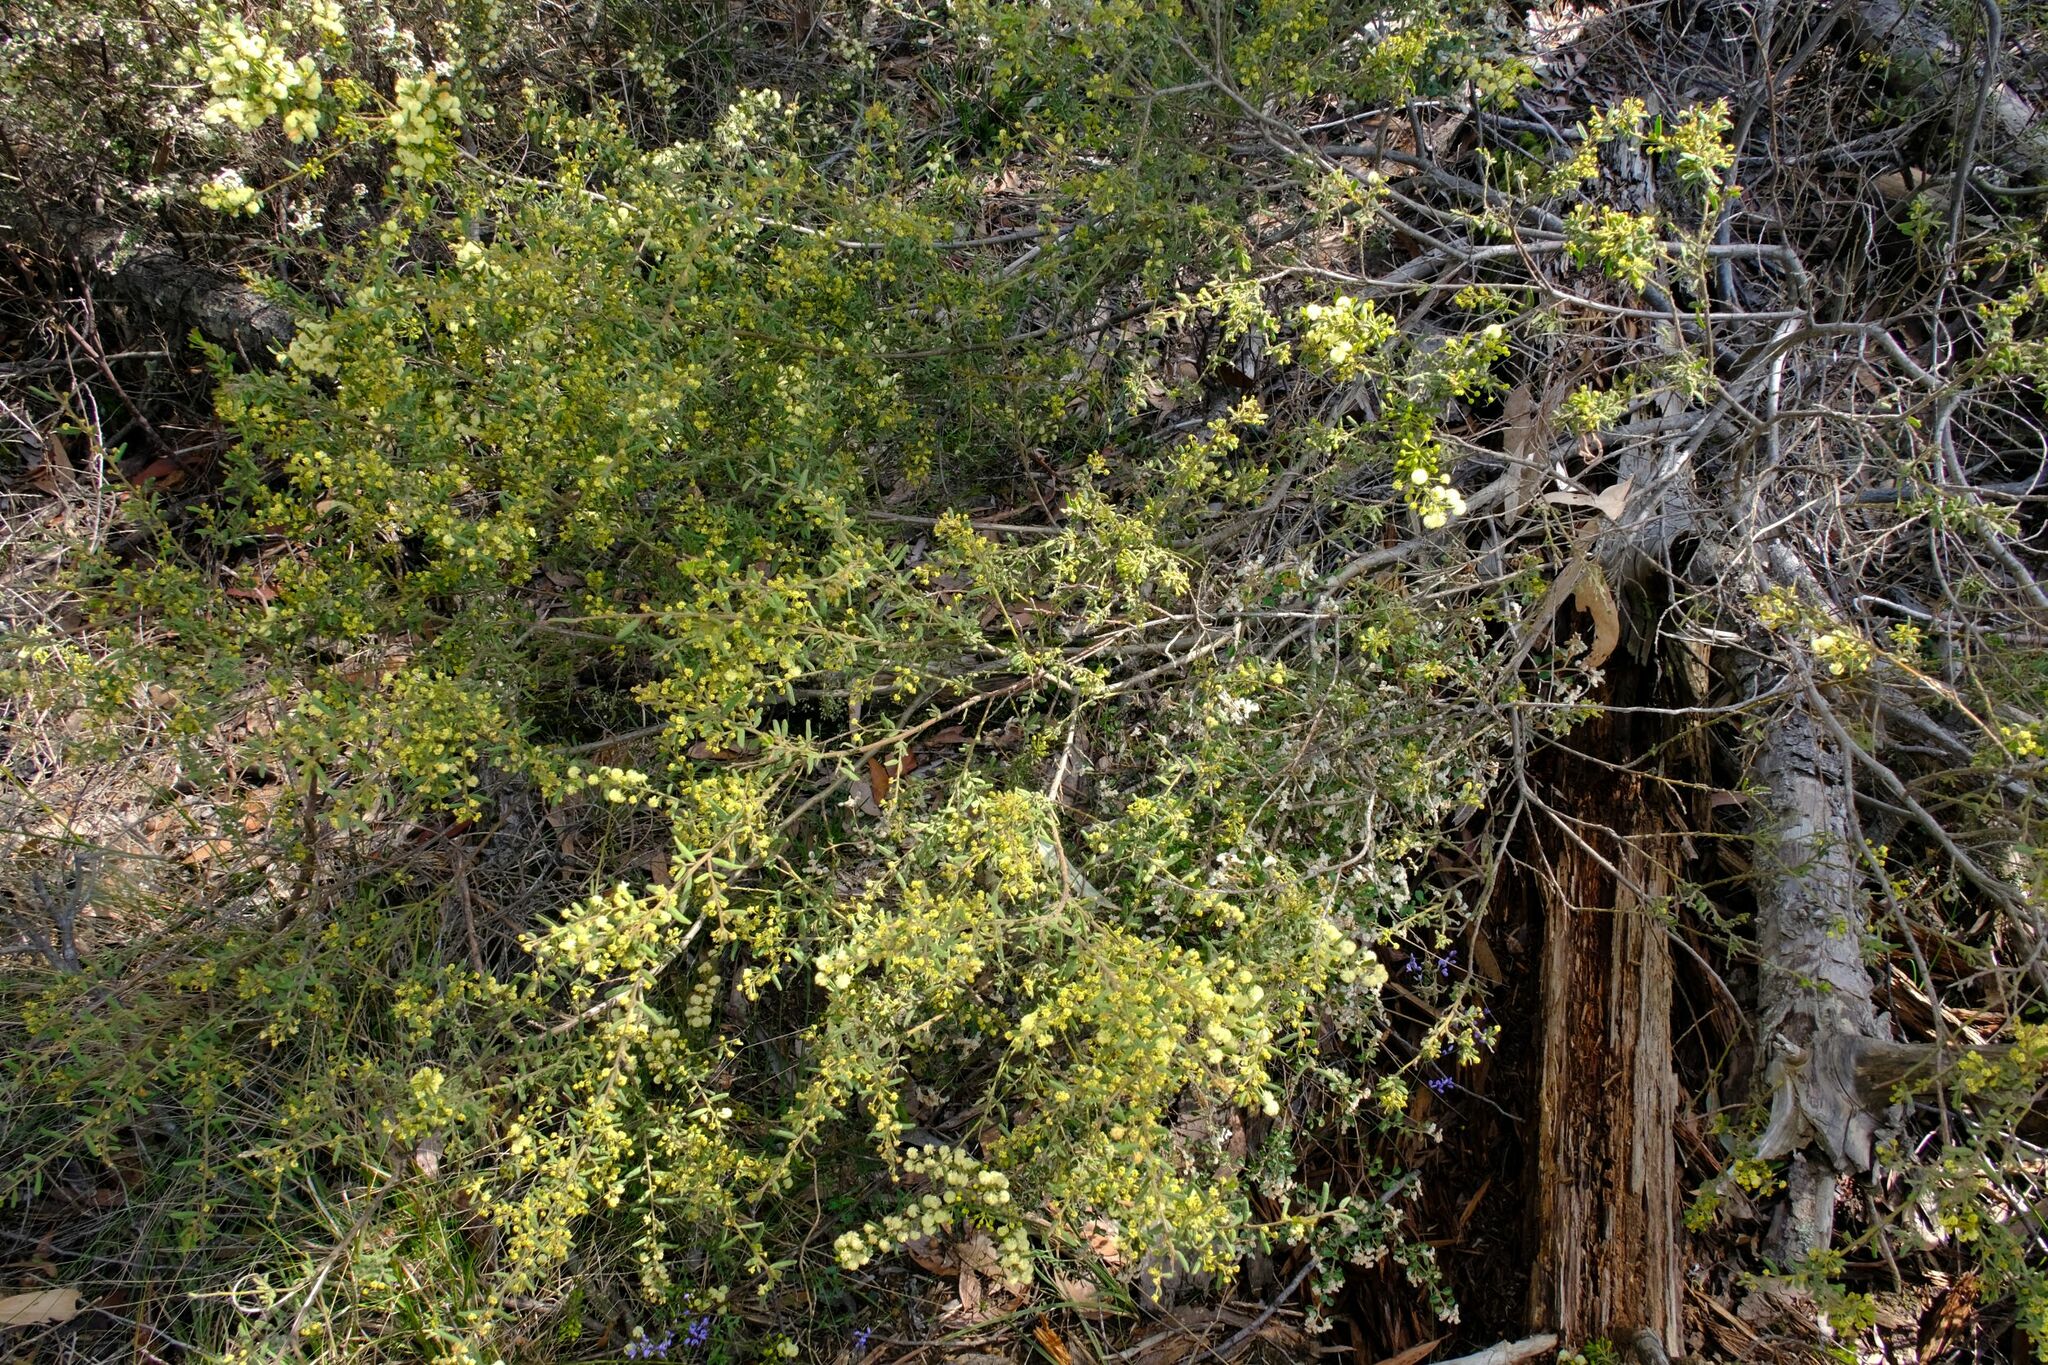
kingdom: Plantae
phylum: Tracheophyta
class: Magnoliopsida
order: Fabales
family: Fabaceae
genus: Acacia
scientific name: Acacia aspera
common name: Rough wattle
